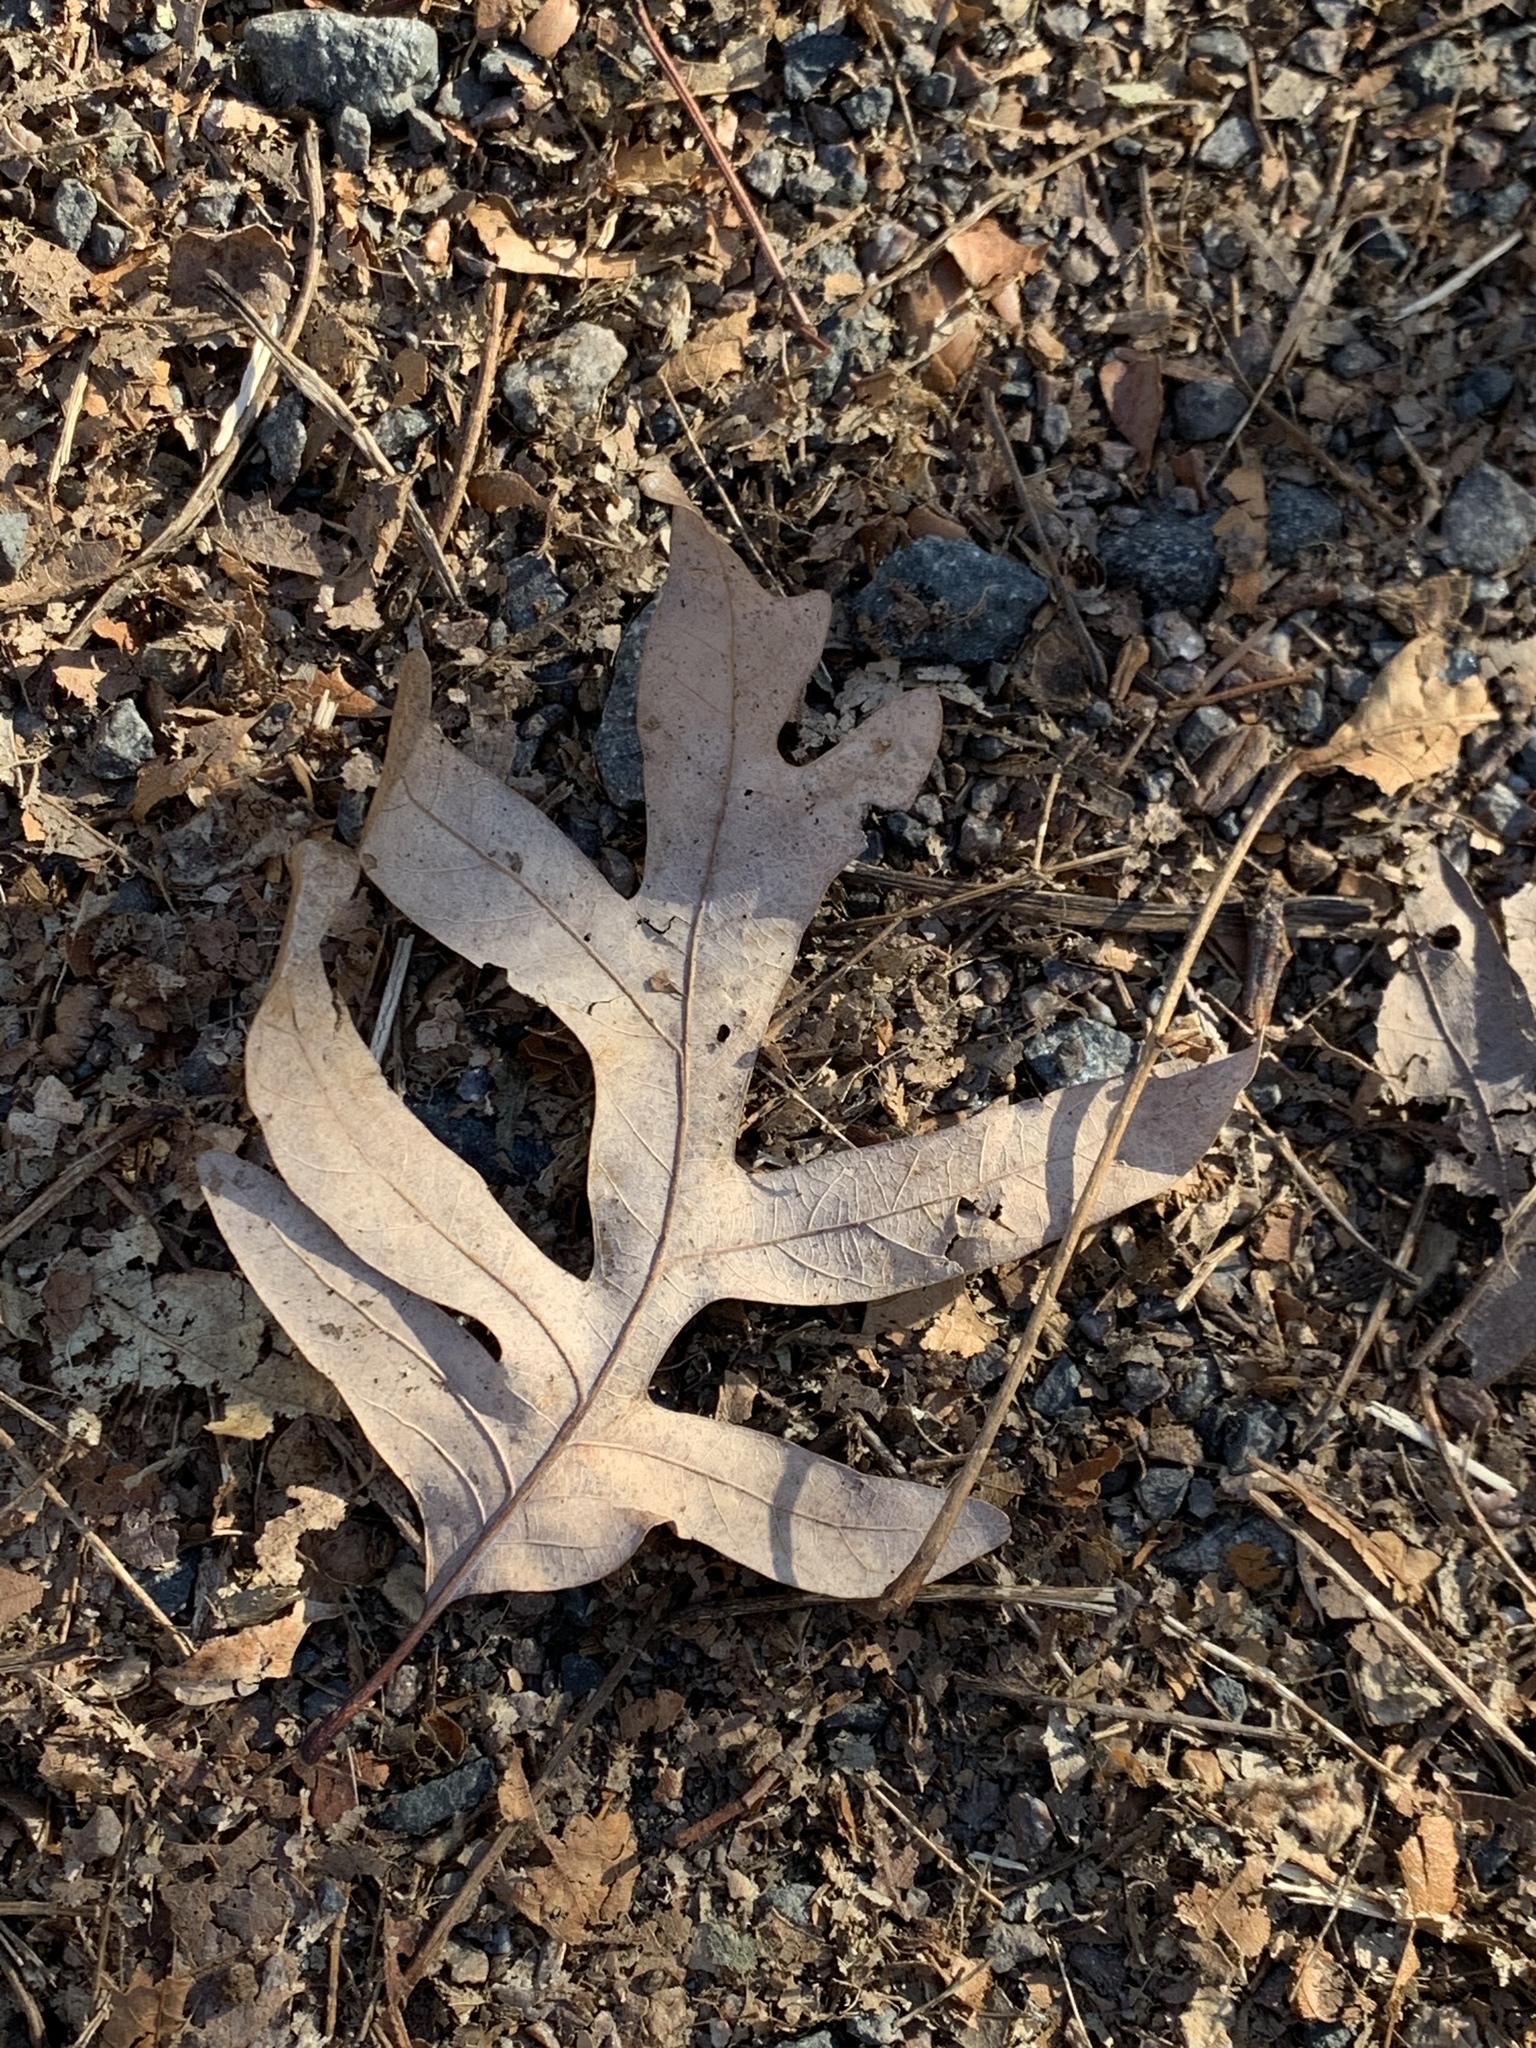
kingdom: Plantae
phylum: Tracheophyta
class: Magnoliopsida
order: Fagales
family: Fagaceae
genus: Quercus
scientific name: Quercus alba
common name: White oak
